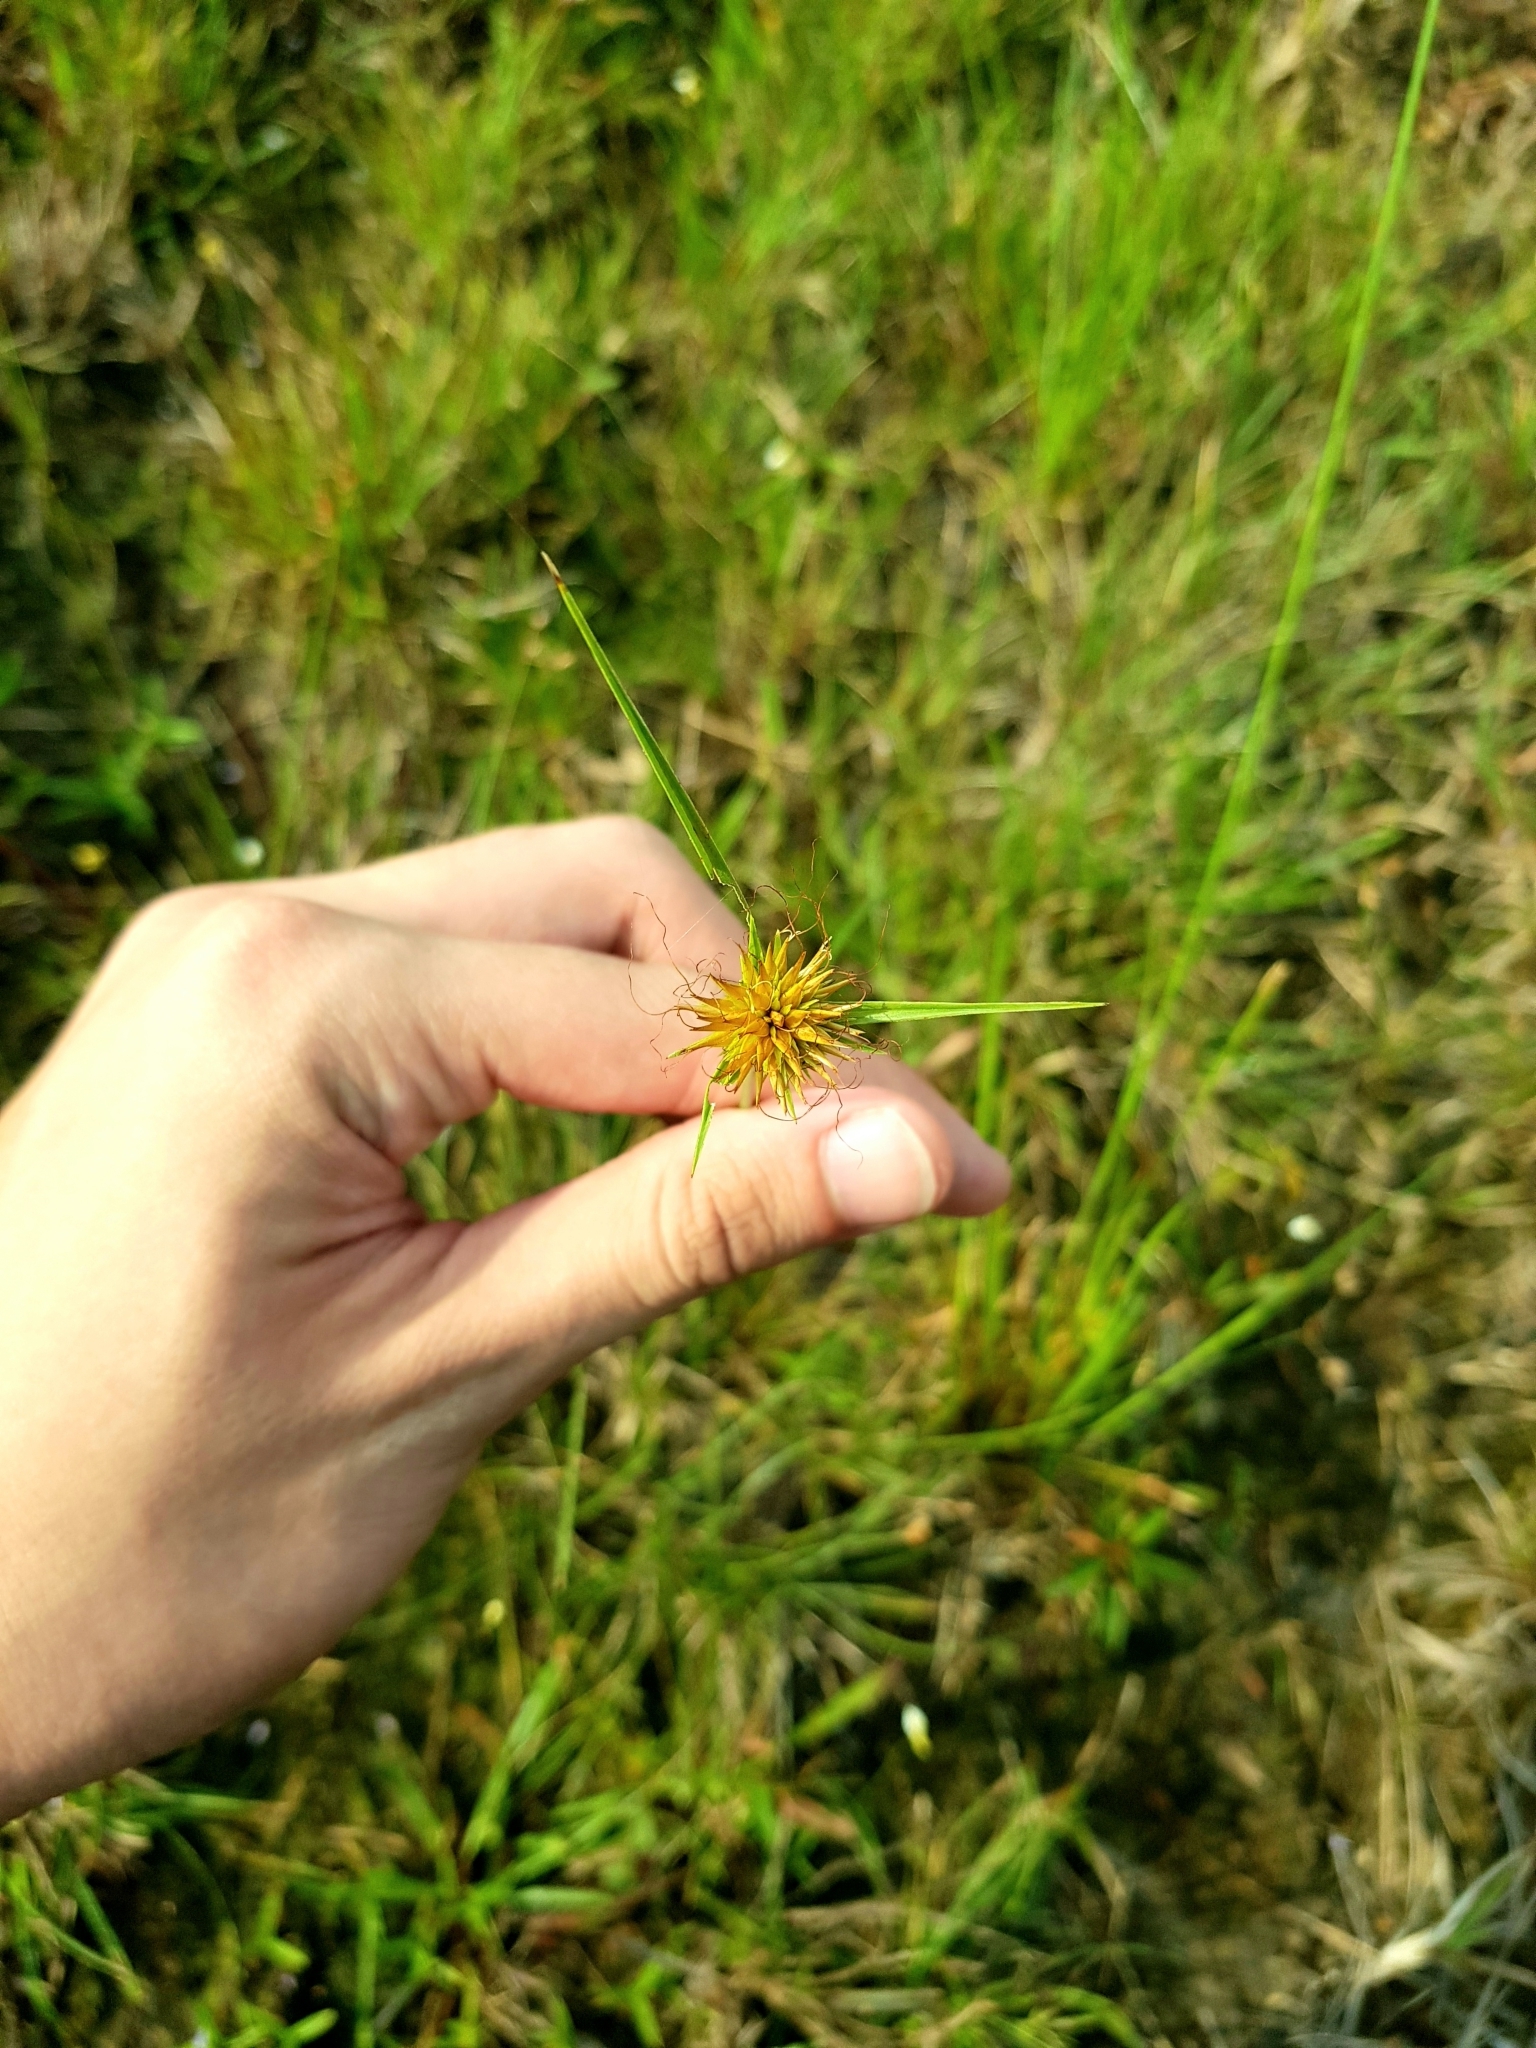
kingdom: Plantae
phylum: Tracheophyta
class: Liliopsida
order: Poales
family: Cyperaceae
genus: Rhynchospora
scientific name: Rhynchospora rubra
